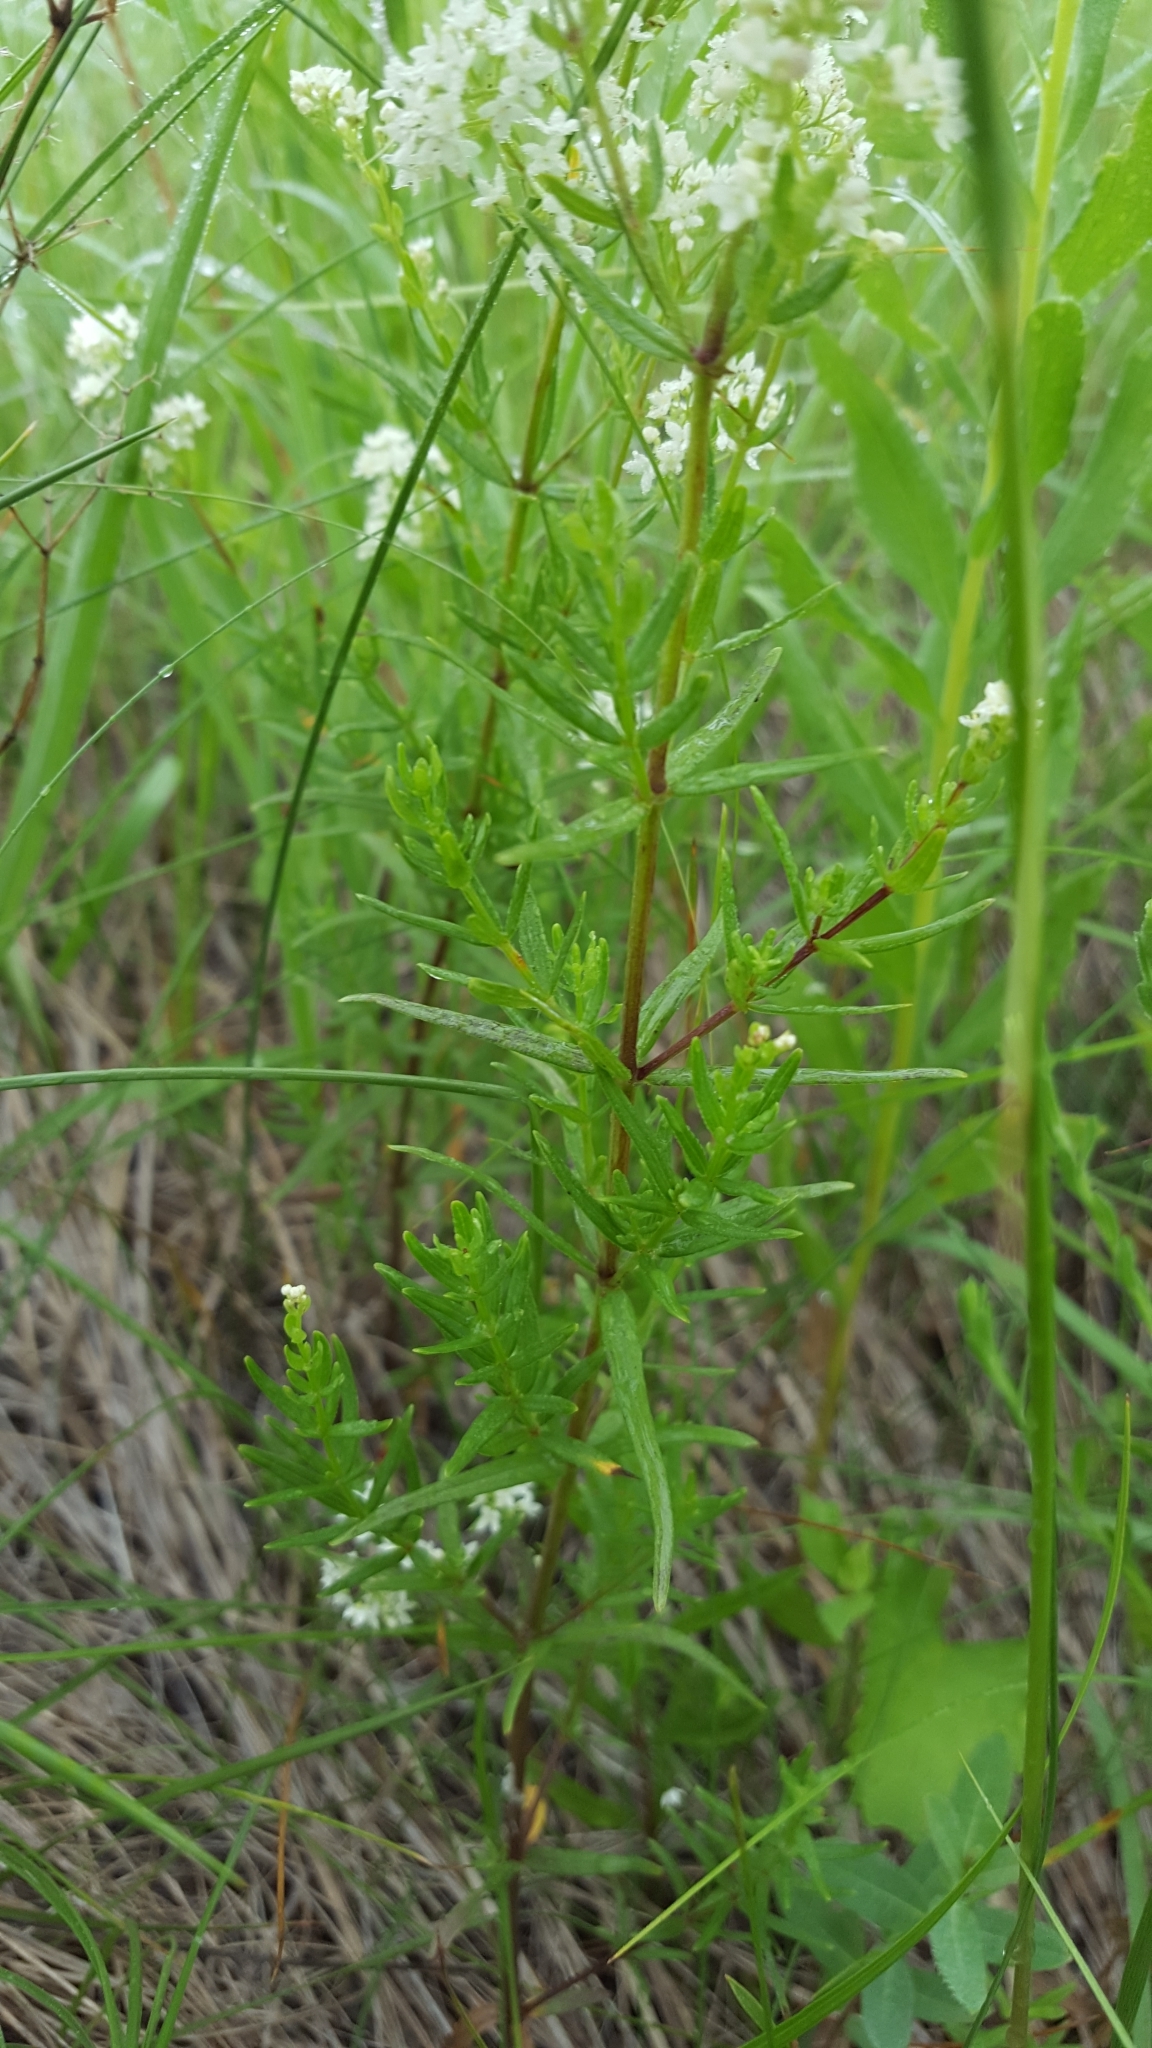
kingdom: Plantae
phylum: Tracheophyta
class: Magnoliopsida
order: Gentianales
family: Rubiaceae
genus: Galium
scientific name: Galium boreale
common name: Northern bedstraw
